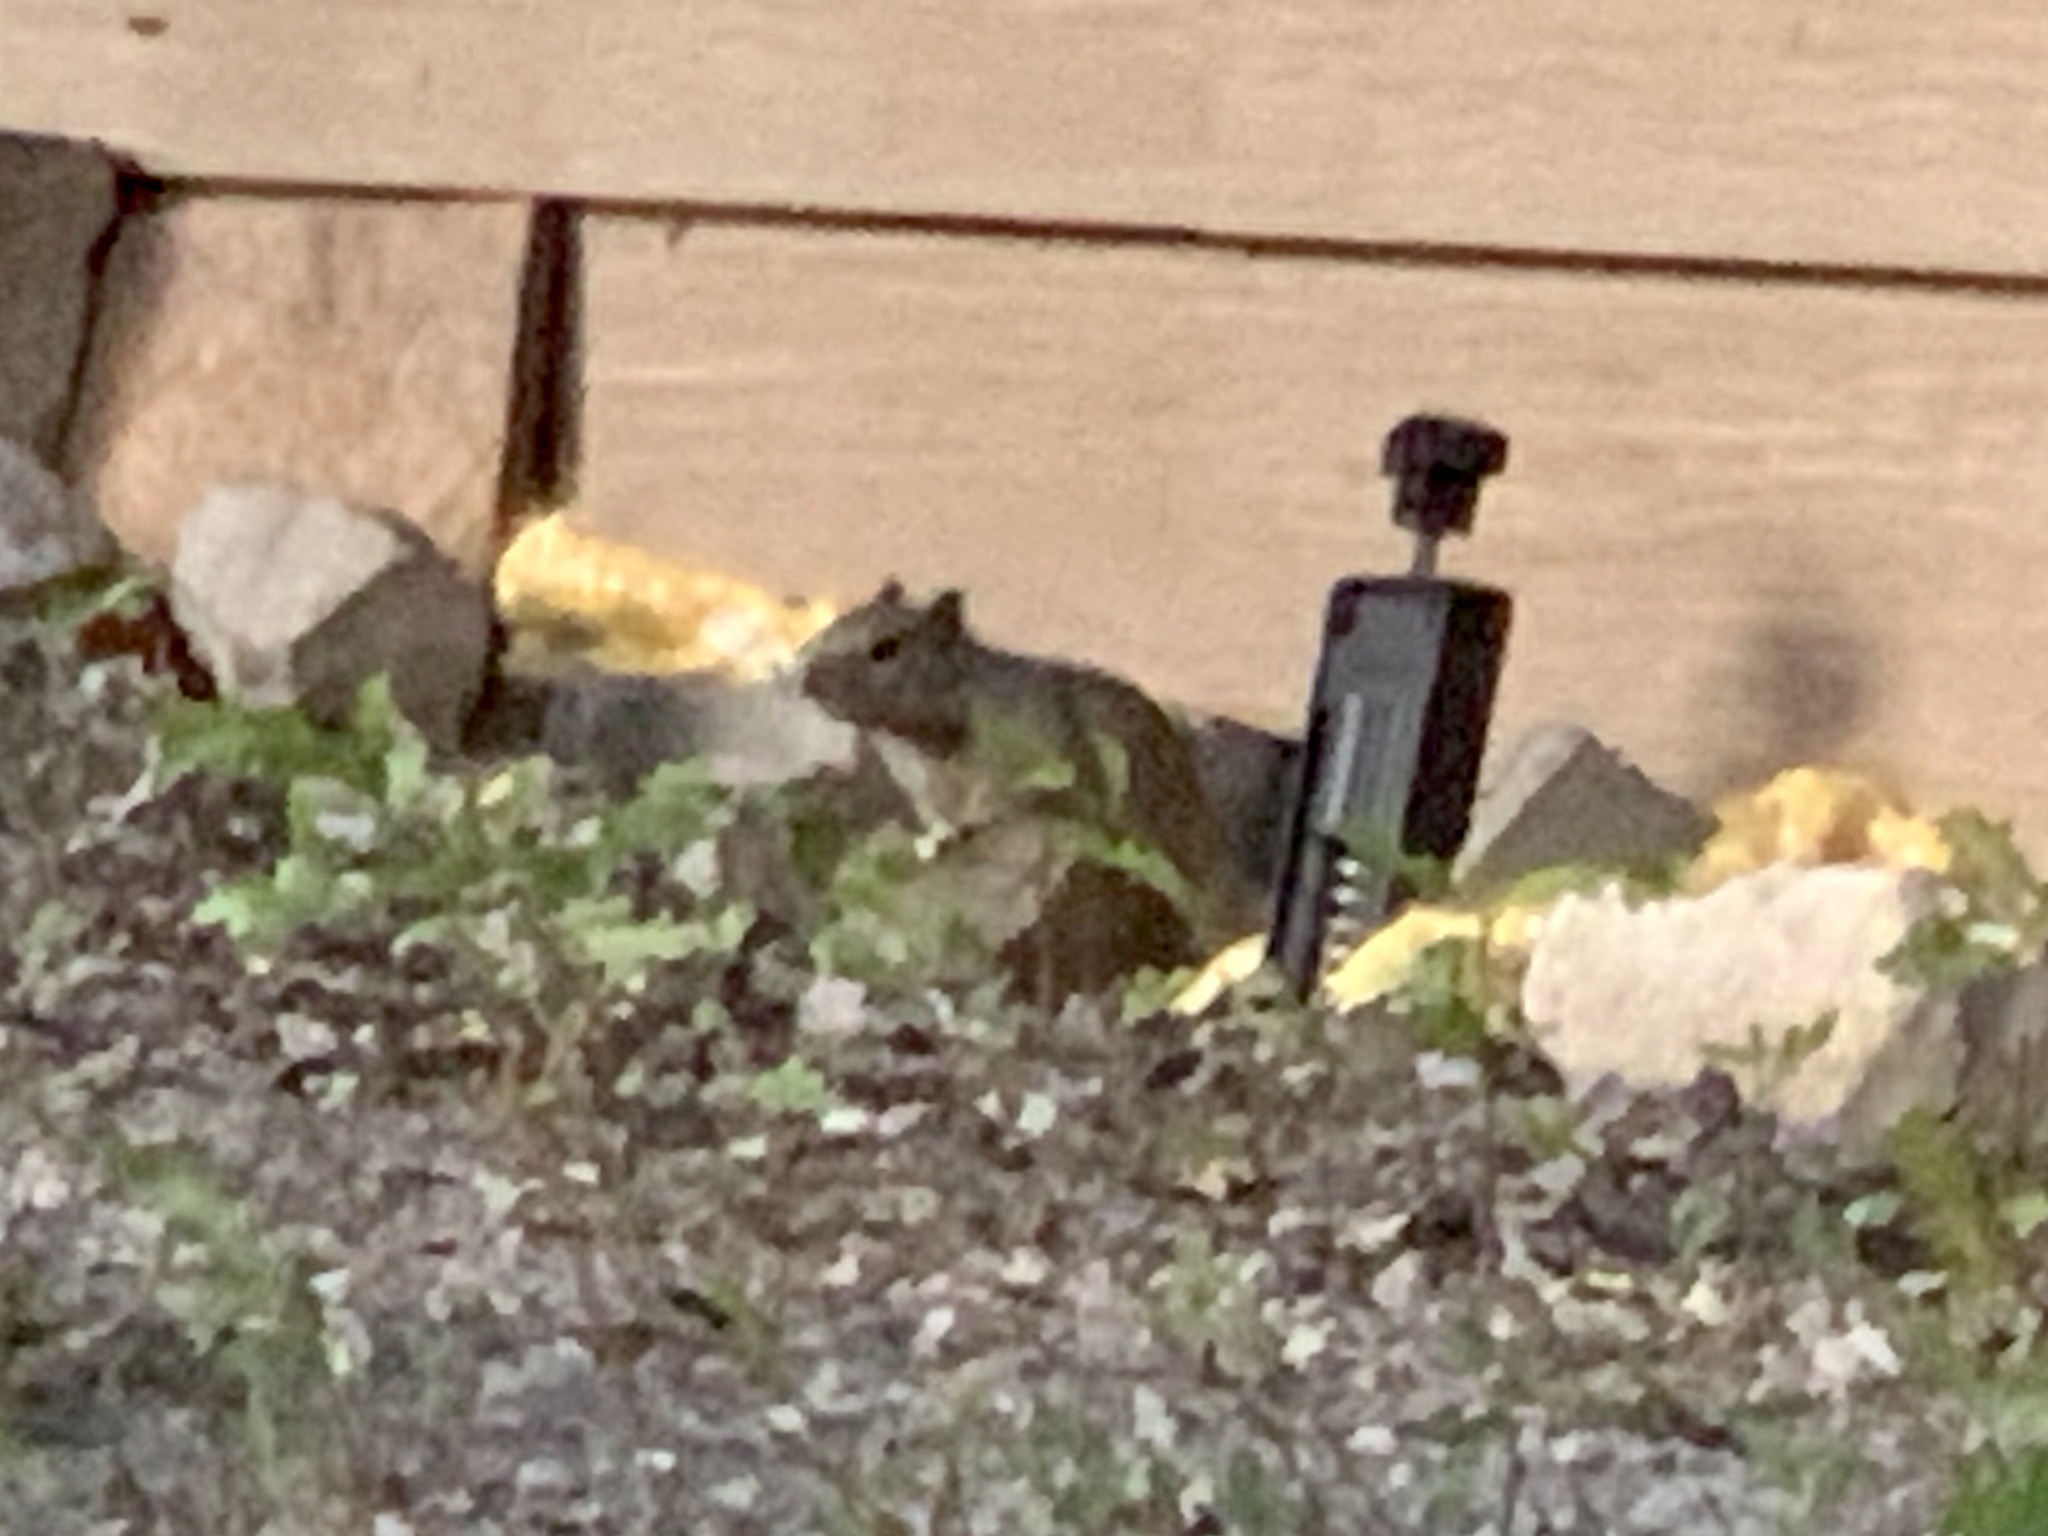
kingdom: Animalia
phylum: Chordata
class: Mammalia
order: Rodentia
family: Sciuridae
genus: Otospermophilus
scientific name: Otospermophilus variegatus
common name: Rock squirrel
